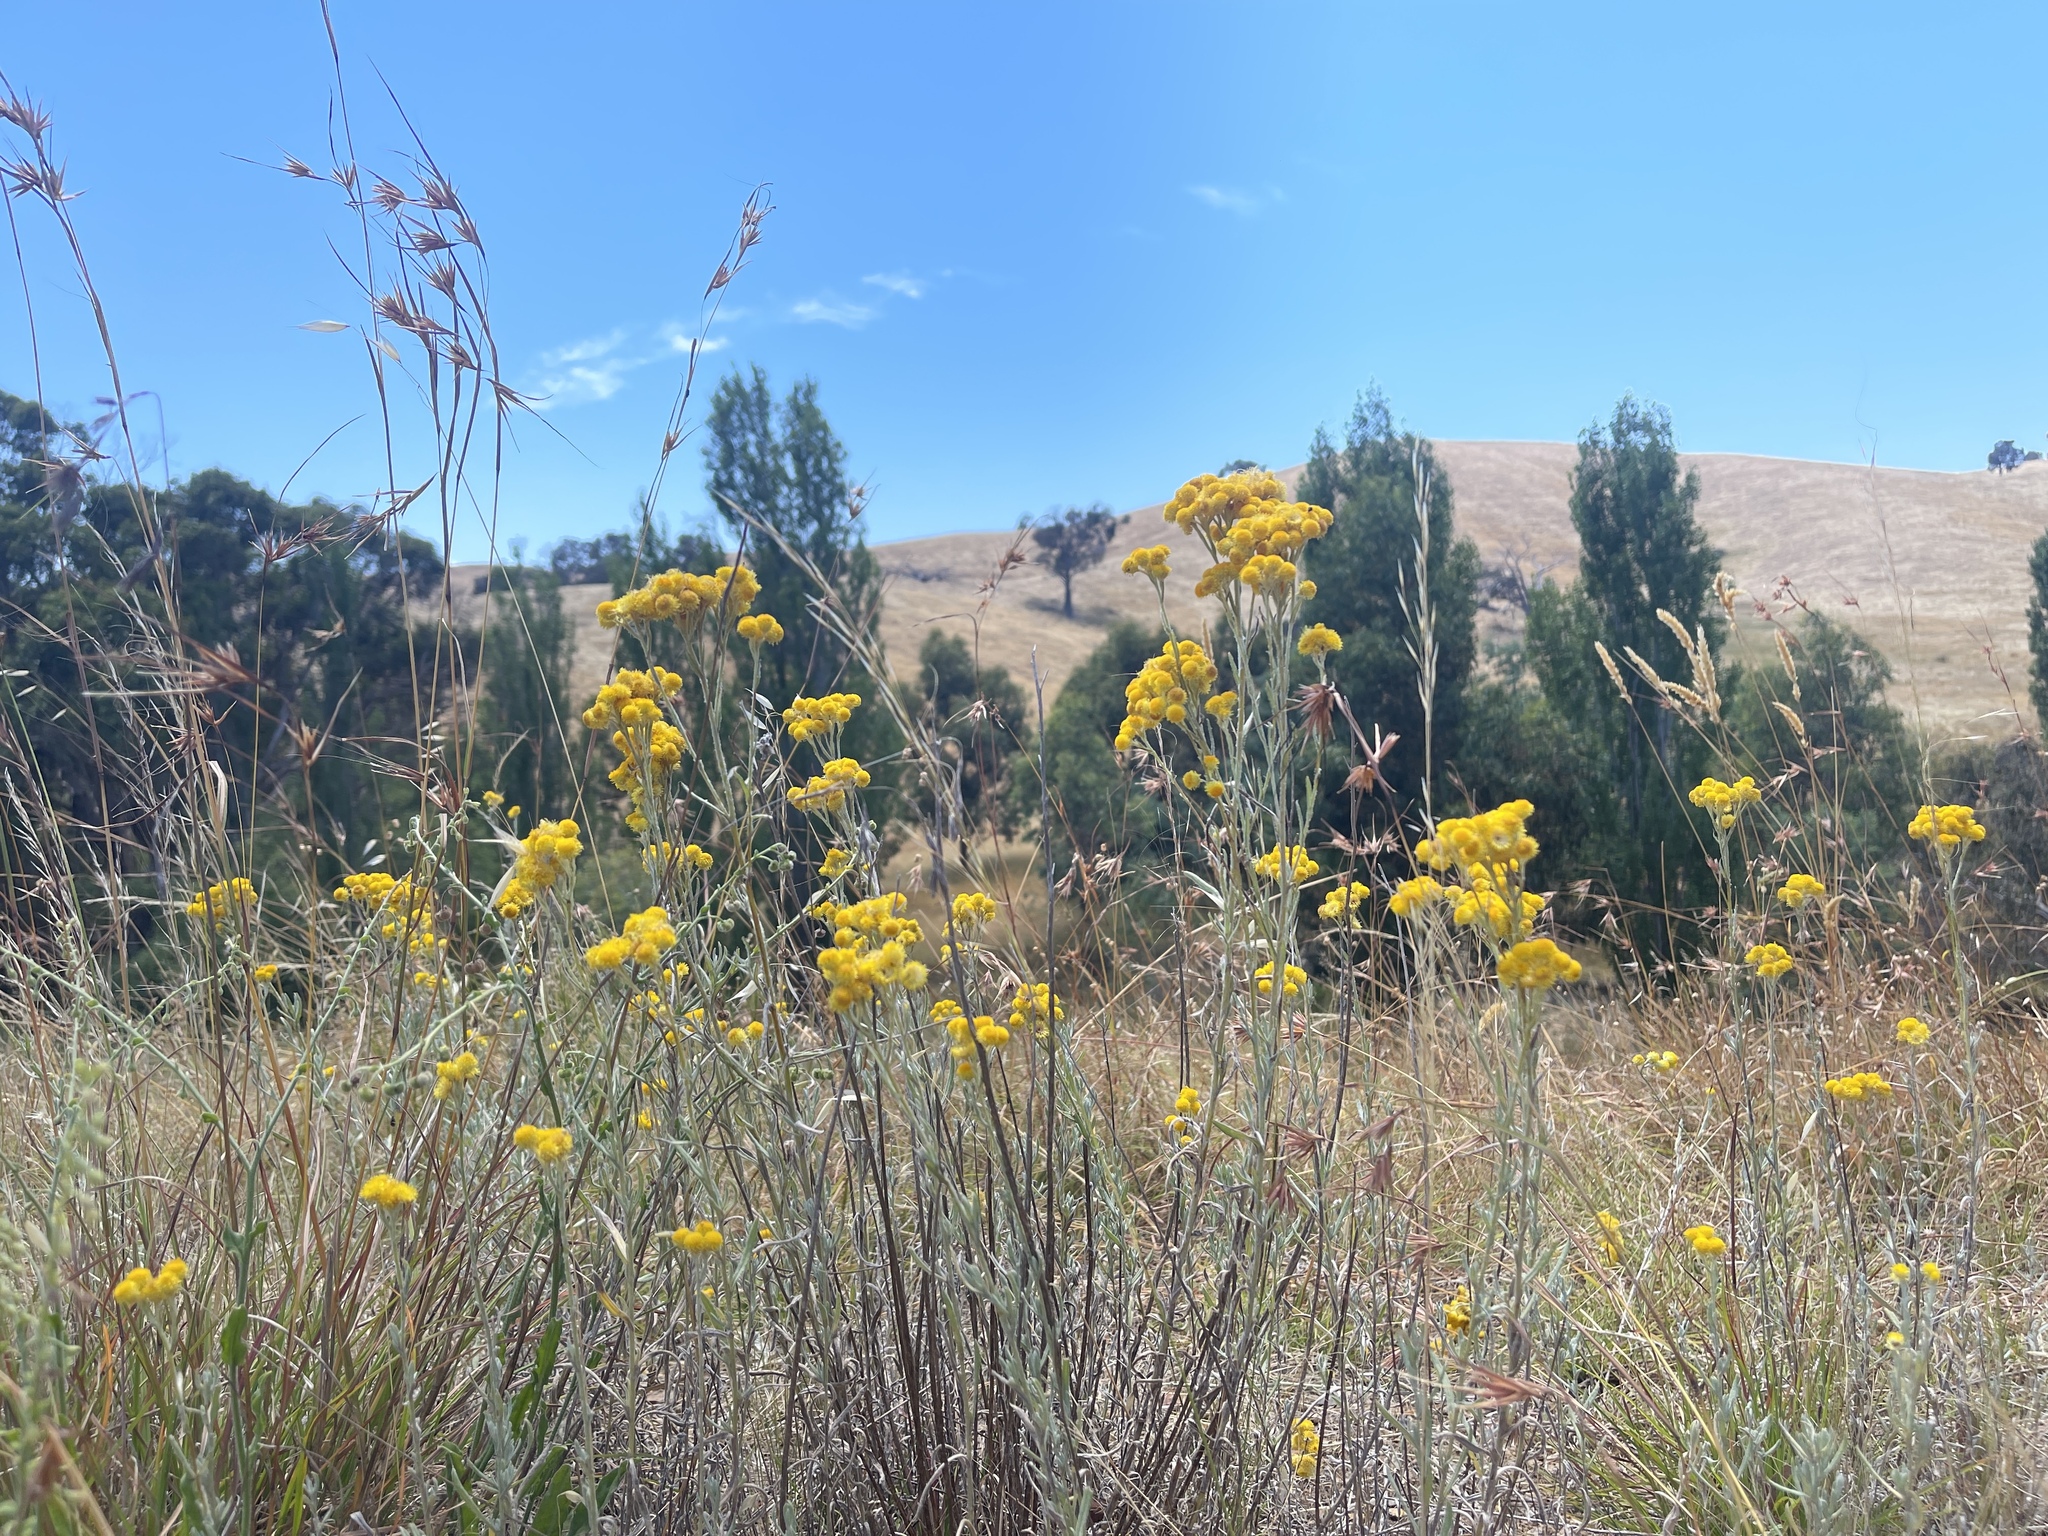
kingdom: Plantae
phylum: Tracheophyta
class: Magnoliopsida
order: Asterales
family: Asteraceae
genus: Chrysocephalum
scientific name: Chrysocephalum apiculatum
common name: Common everlasting
